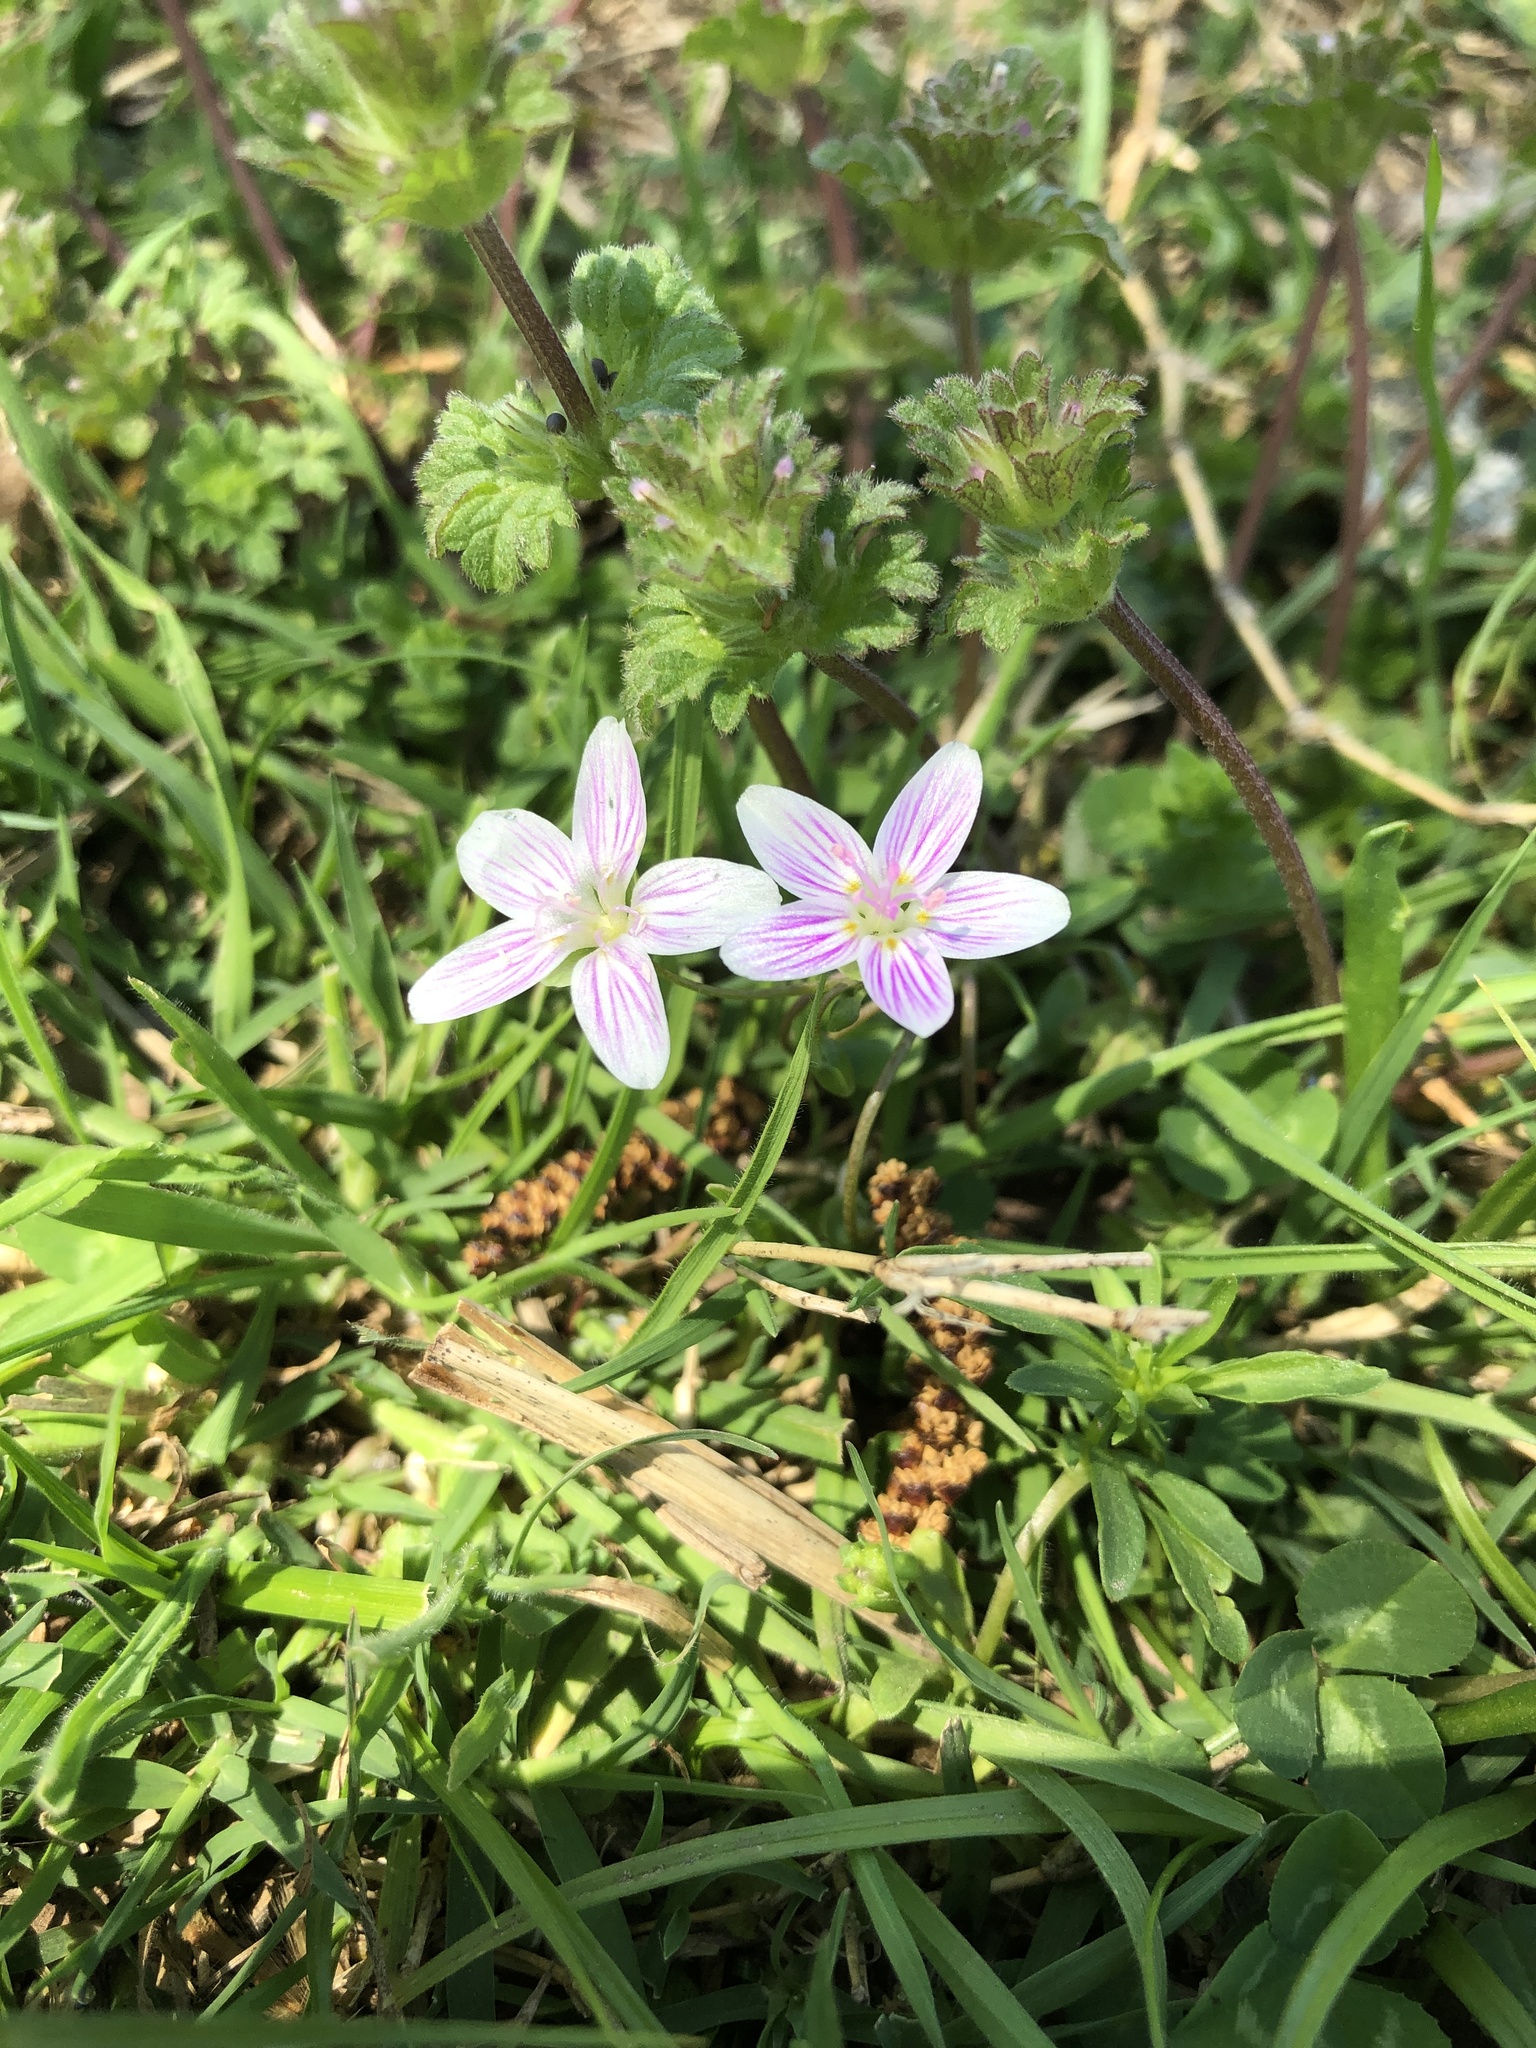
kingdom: Plantae
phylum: Tracheophyta
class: Magnoliopsida
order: Caryophyllales
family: Montiaceae
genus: Claytonia
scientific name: Claytonia virginica
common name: Virginia springbeauty
